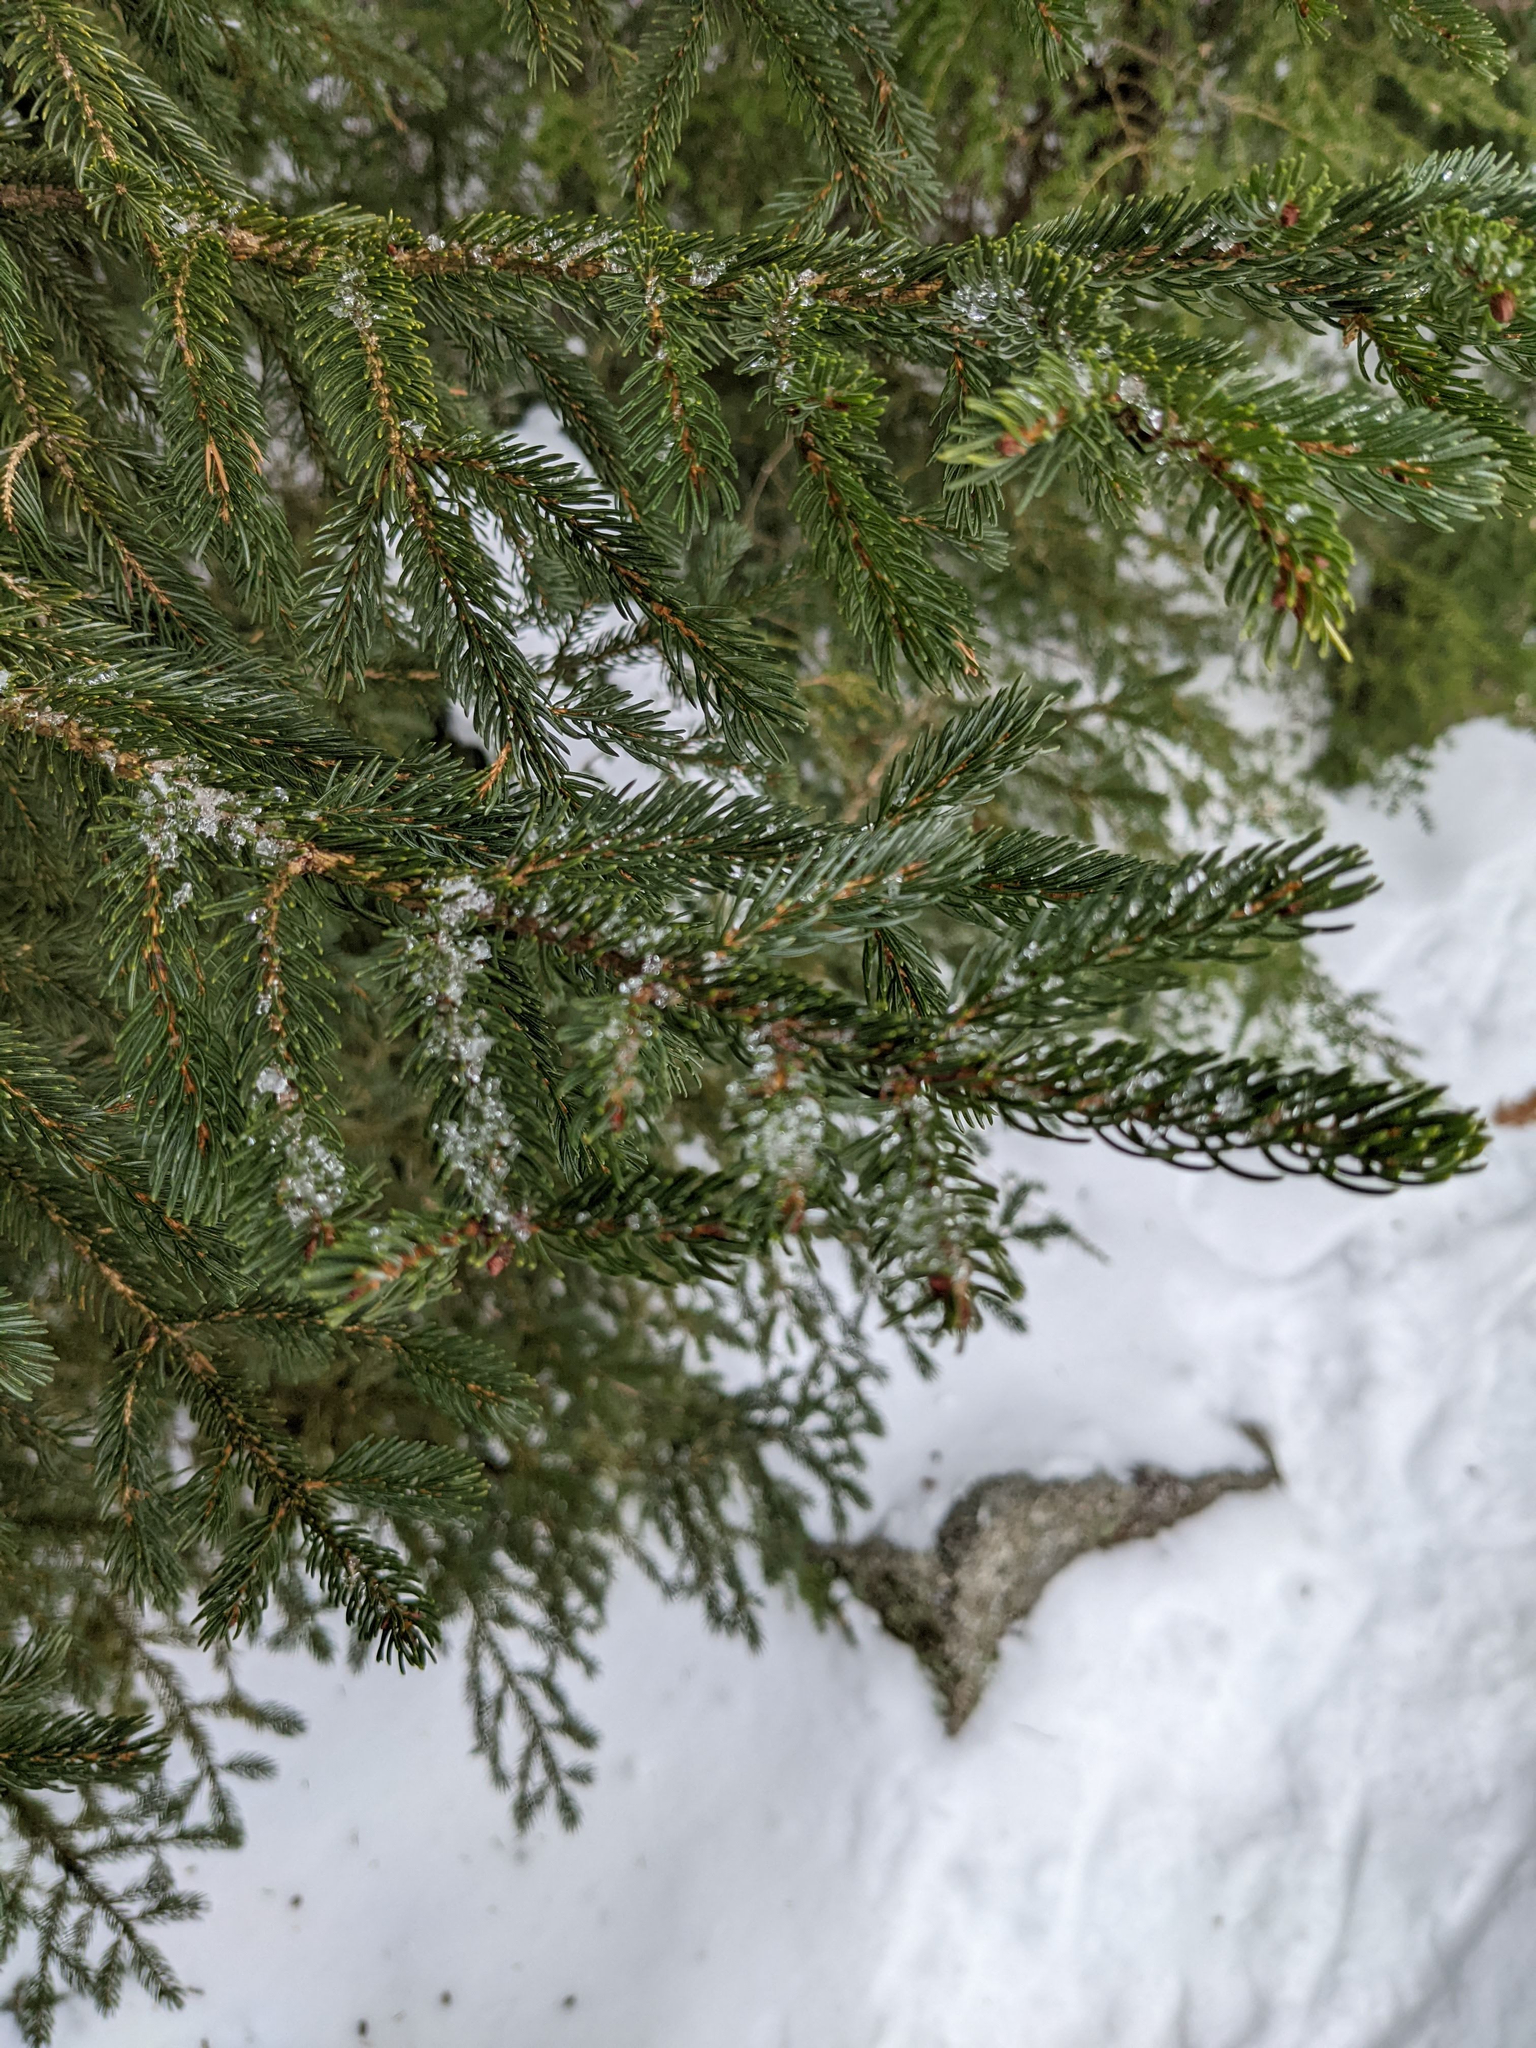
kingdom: Plantae
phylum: Tracheophyta
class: Pinopsida
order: Pinales
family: Pinaceae
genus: Picea
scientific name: Picea rubens
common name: Red spruce
